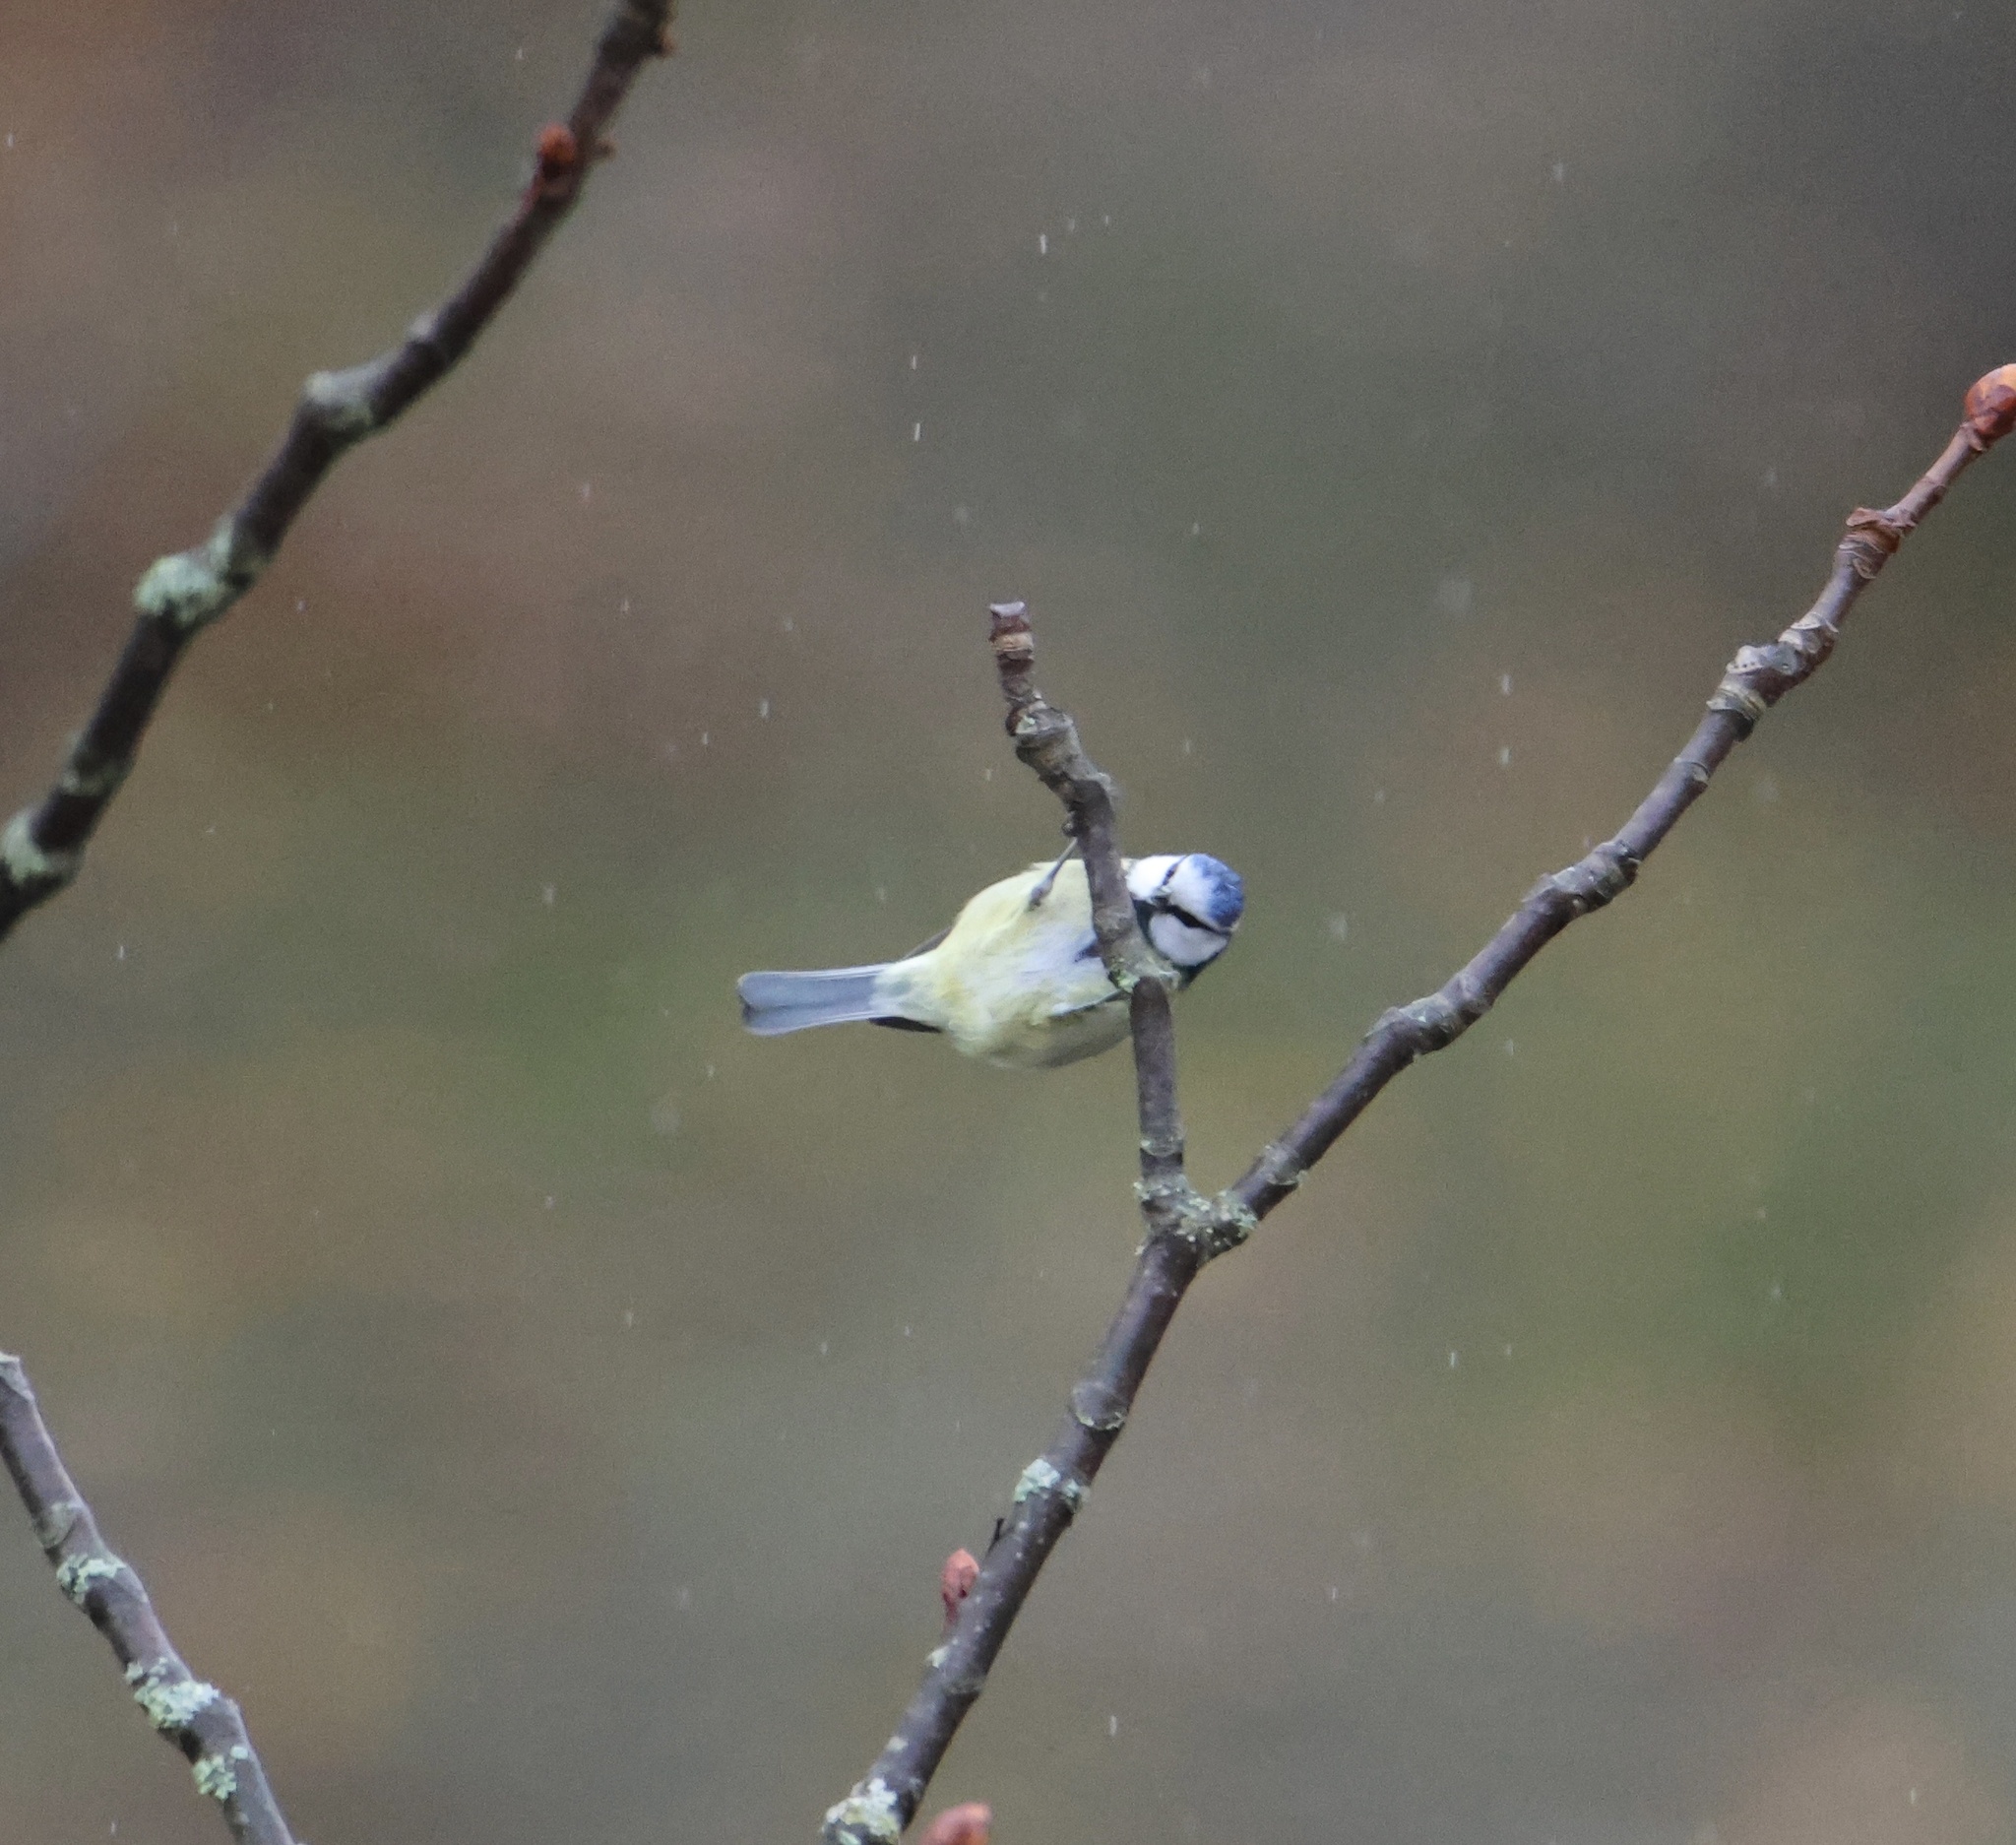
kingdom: Animalia
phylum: Chordata
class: Aves
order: Passeriformes
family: Paridae
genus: Cyanistes
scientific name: Cyanistes caeruleus
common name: Eurasian blue tit
